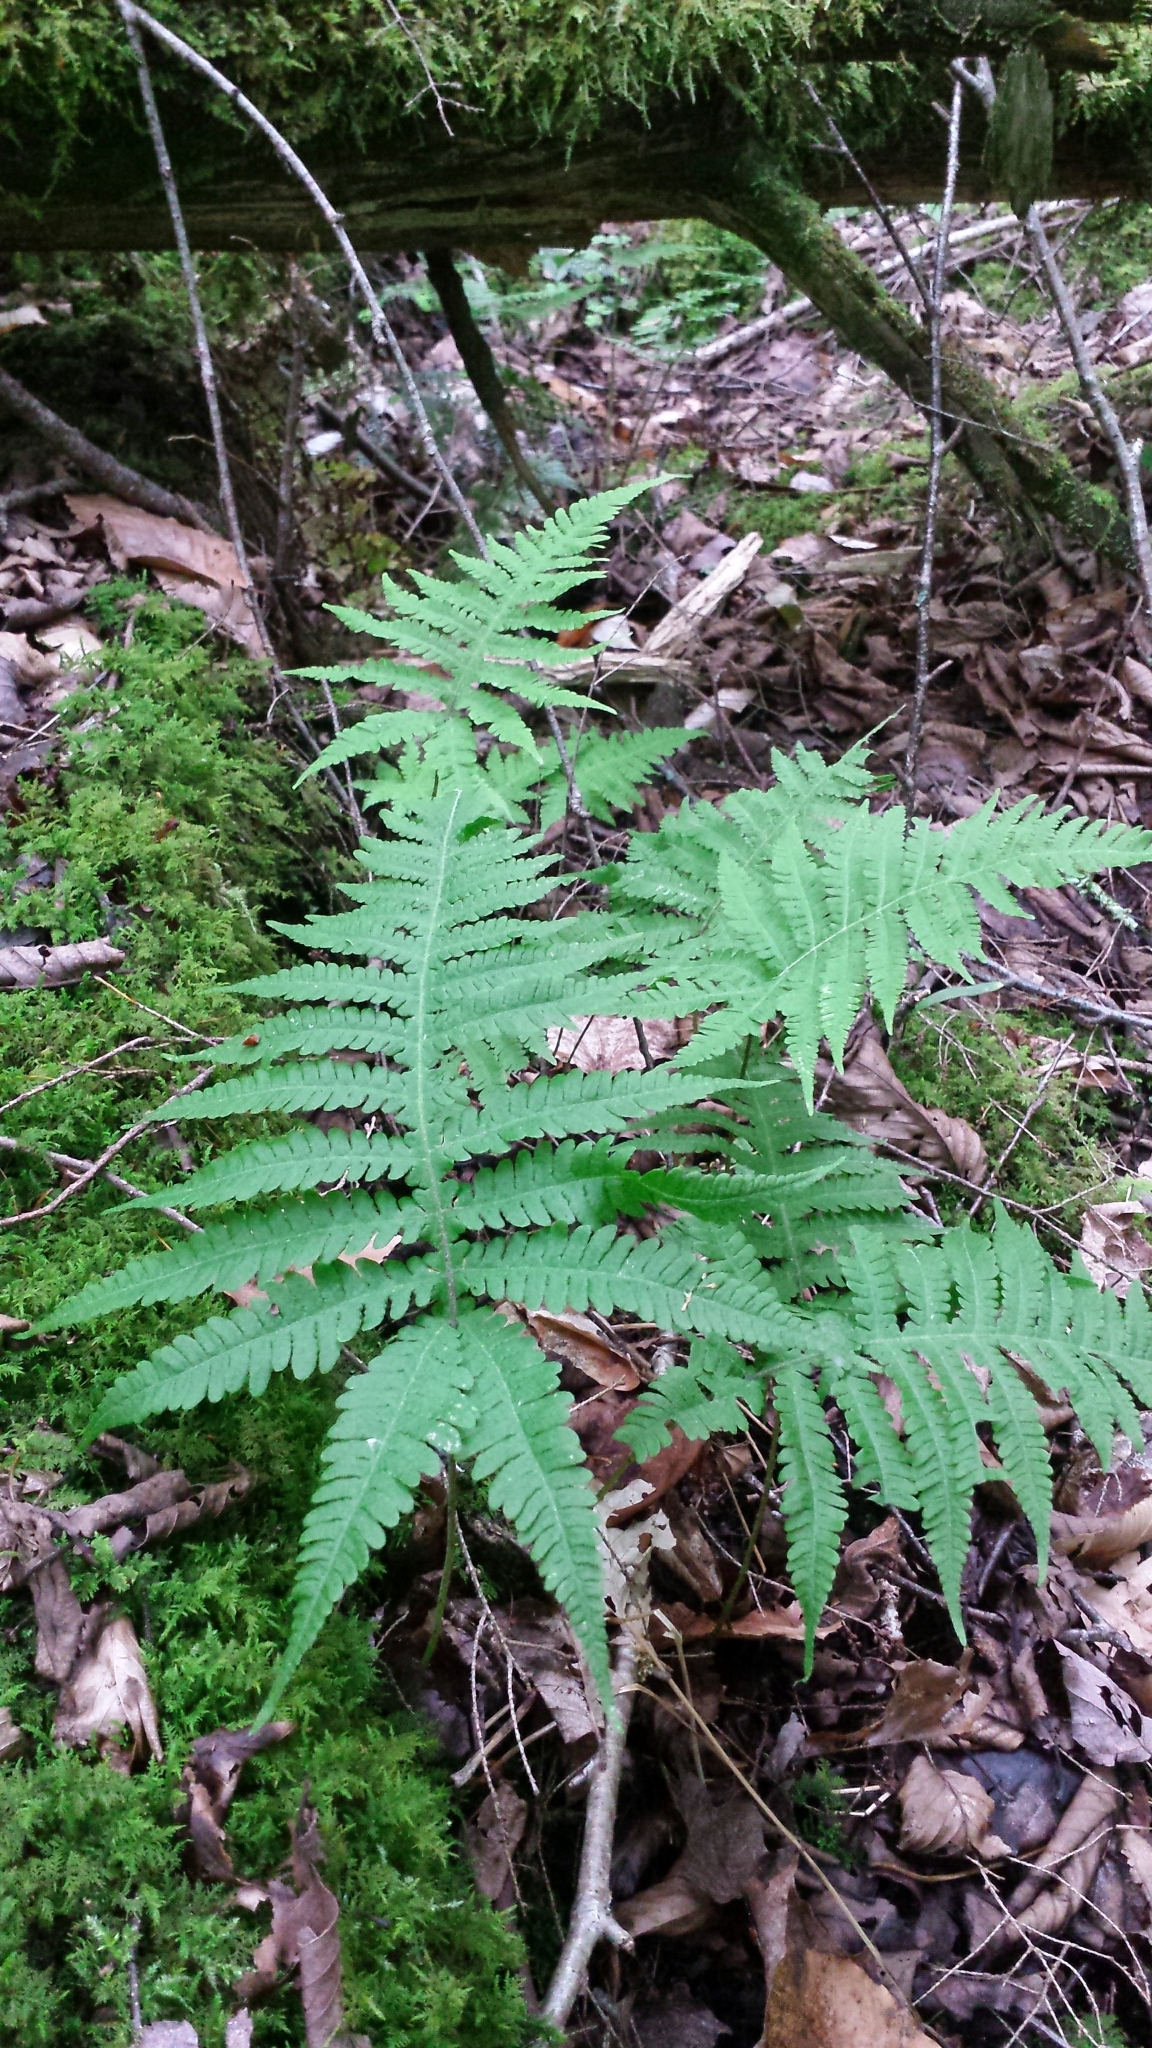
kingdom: Plantae
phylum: Tracheophyta
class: Polypodiopsida
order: Polypodiales
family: Thelypteridaceae
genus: Phegopteris
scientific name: Phegopteris connectilis
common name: Beech fern
